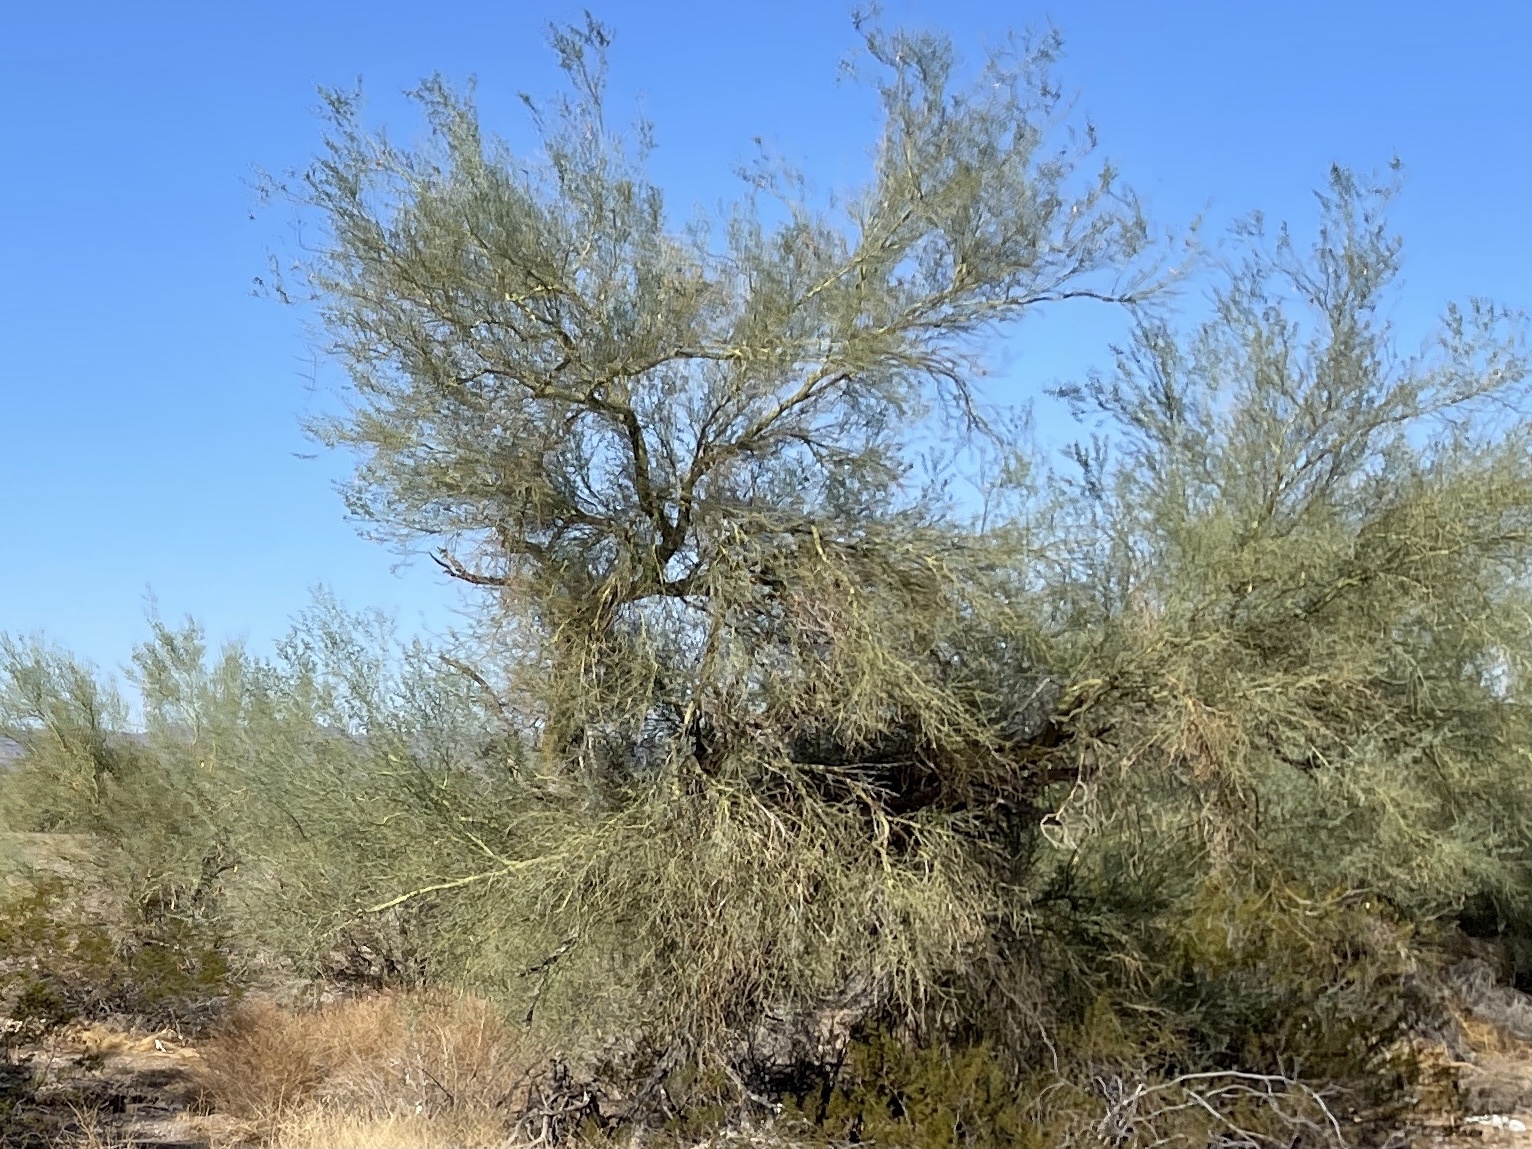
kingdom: Plantae
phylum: Tracheophyta
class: Magnoliopsida
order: Fabales
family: Fabaceae
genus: Parkinsonia
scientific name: Parkinsonia florida
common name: Blue paloverde
